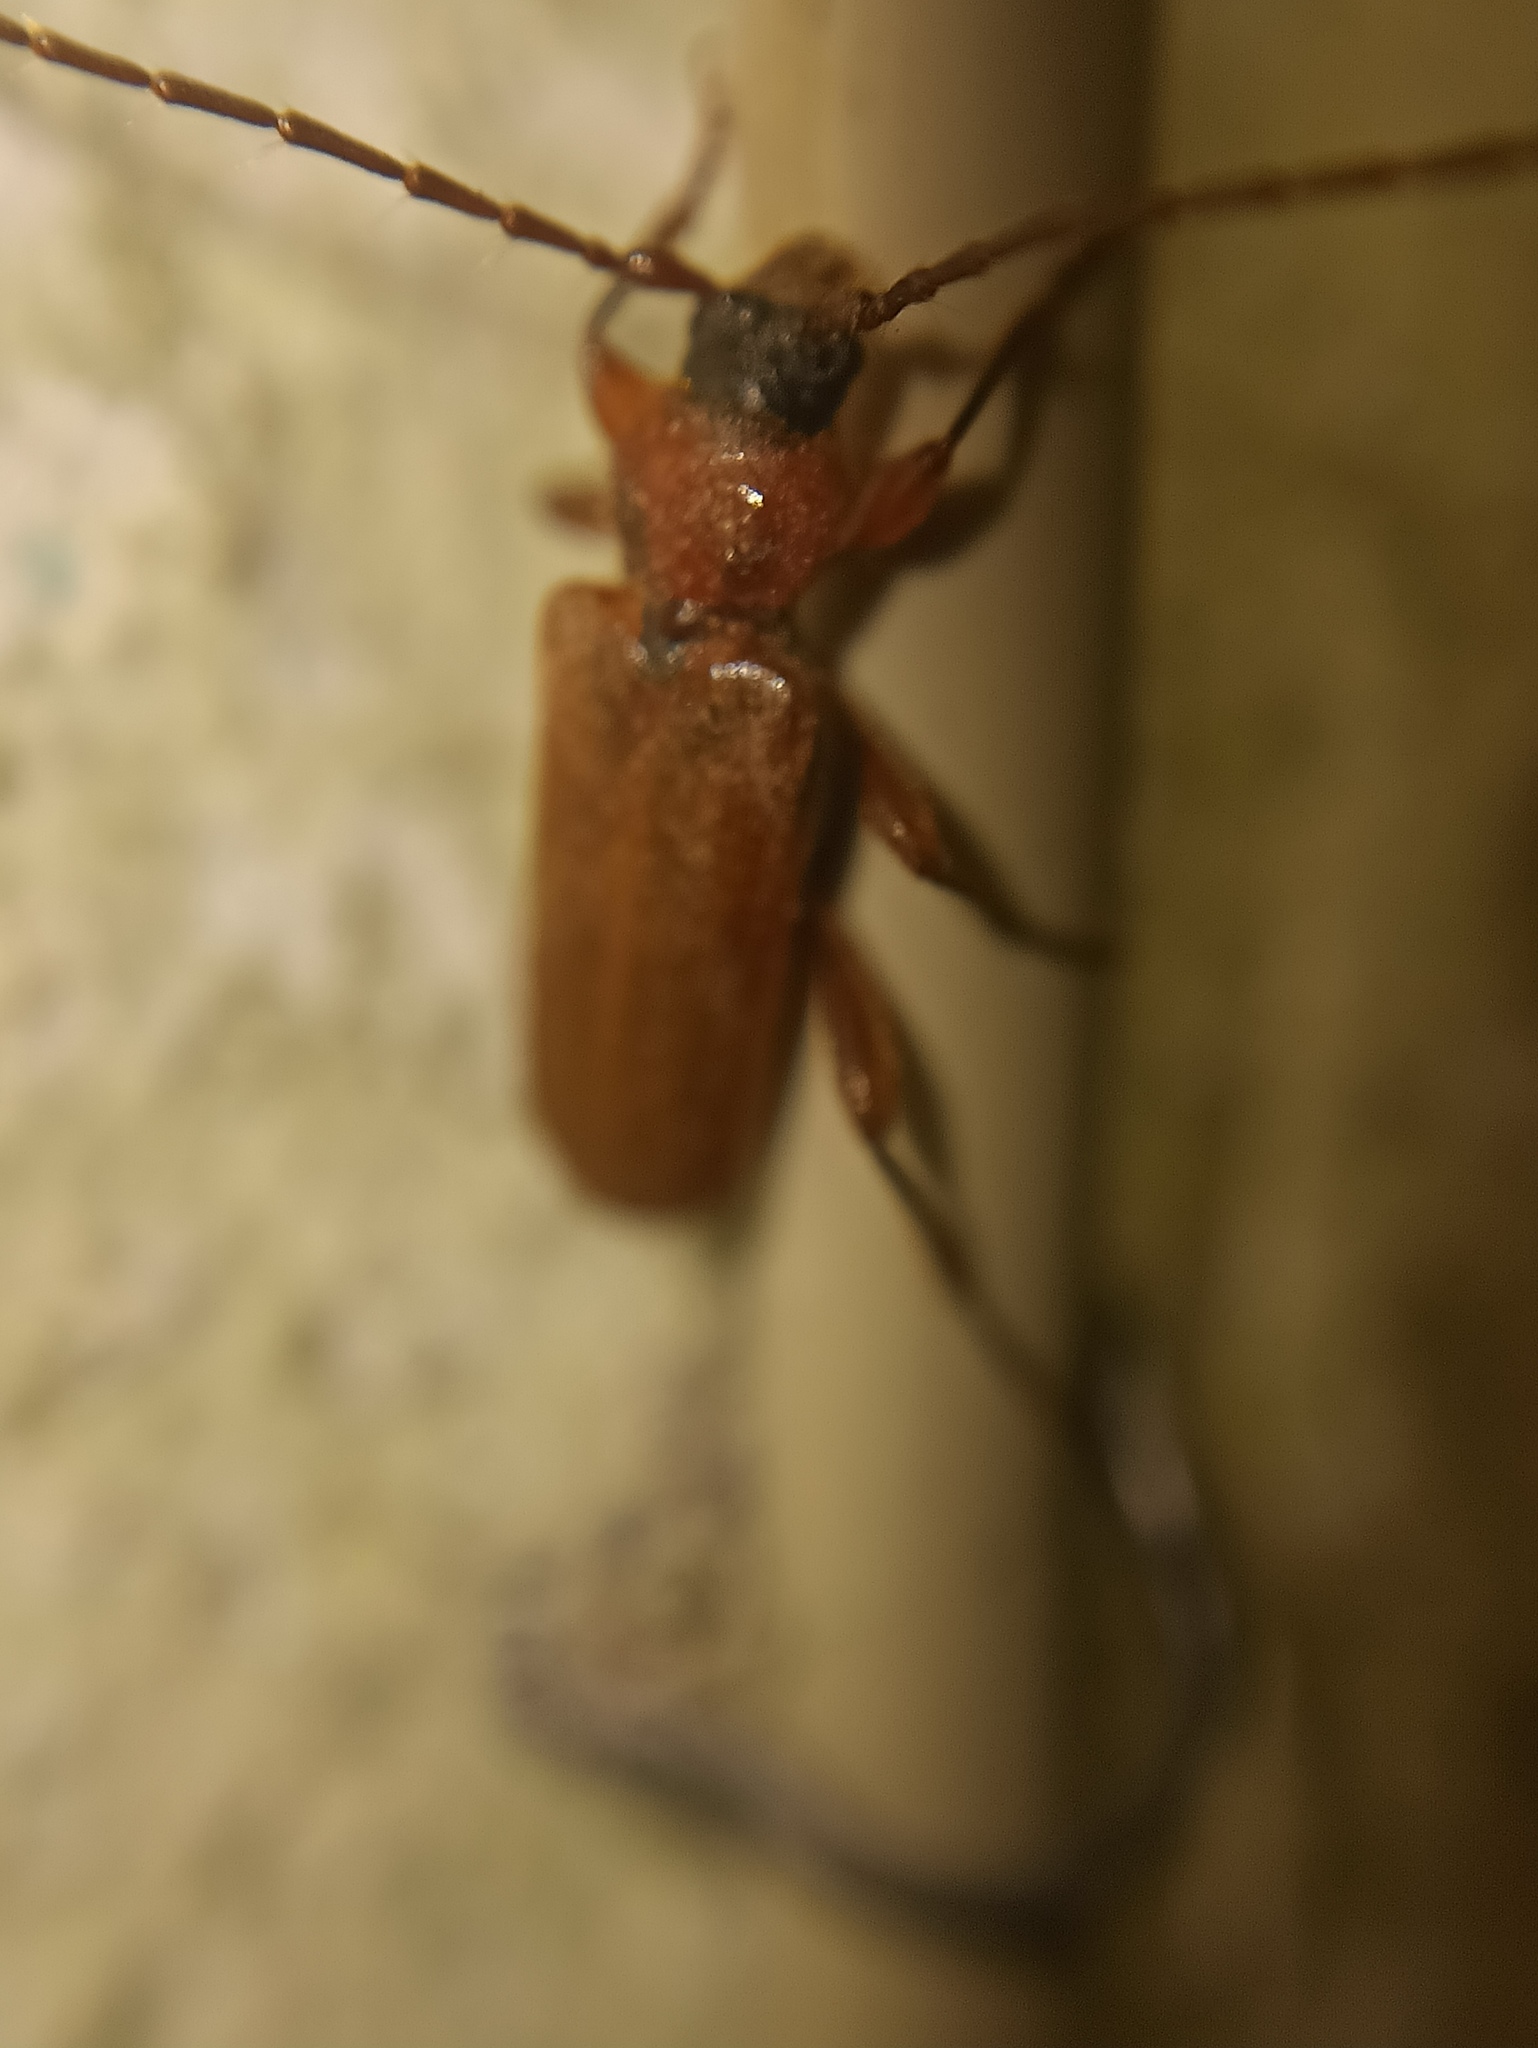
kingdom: Animalia
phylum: Arthropoda
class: Insecta
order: Coleoptera
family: Cerambycidae
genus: Phymatodes
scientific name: Phymatodes testaceus
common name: Long-horned beetle
